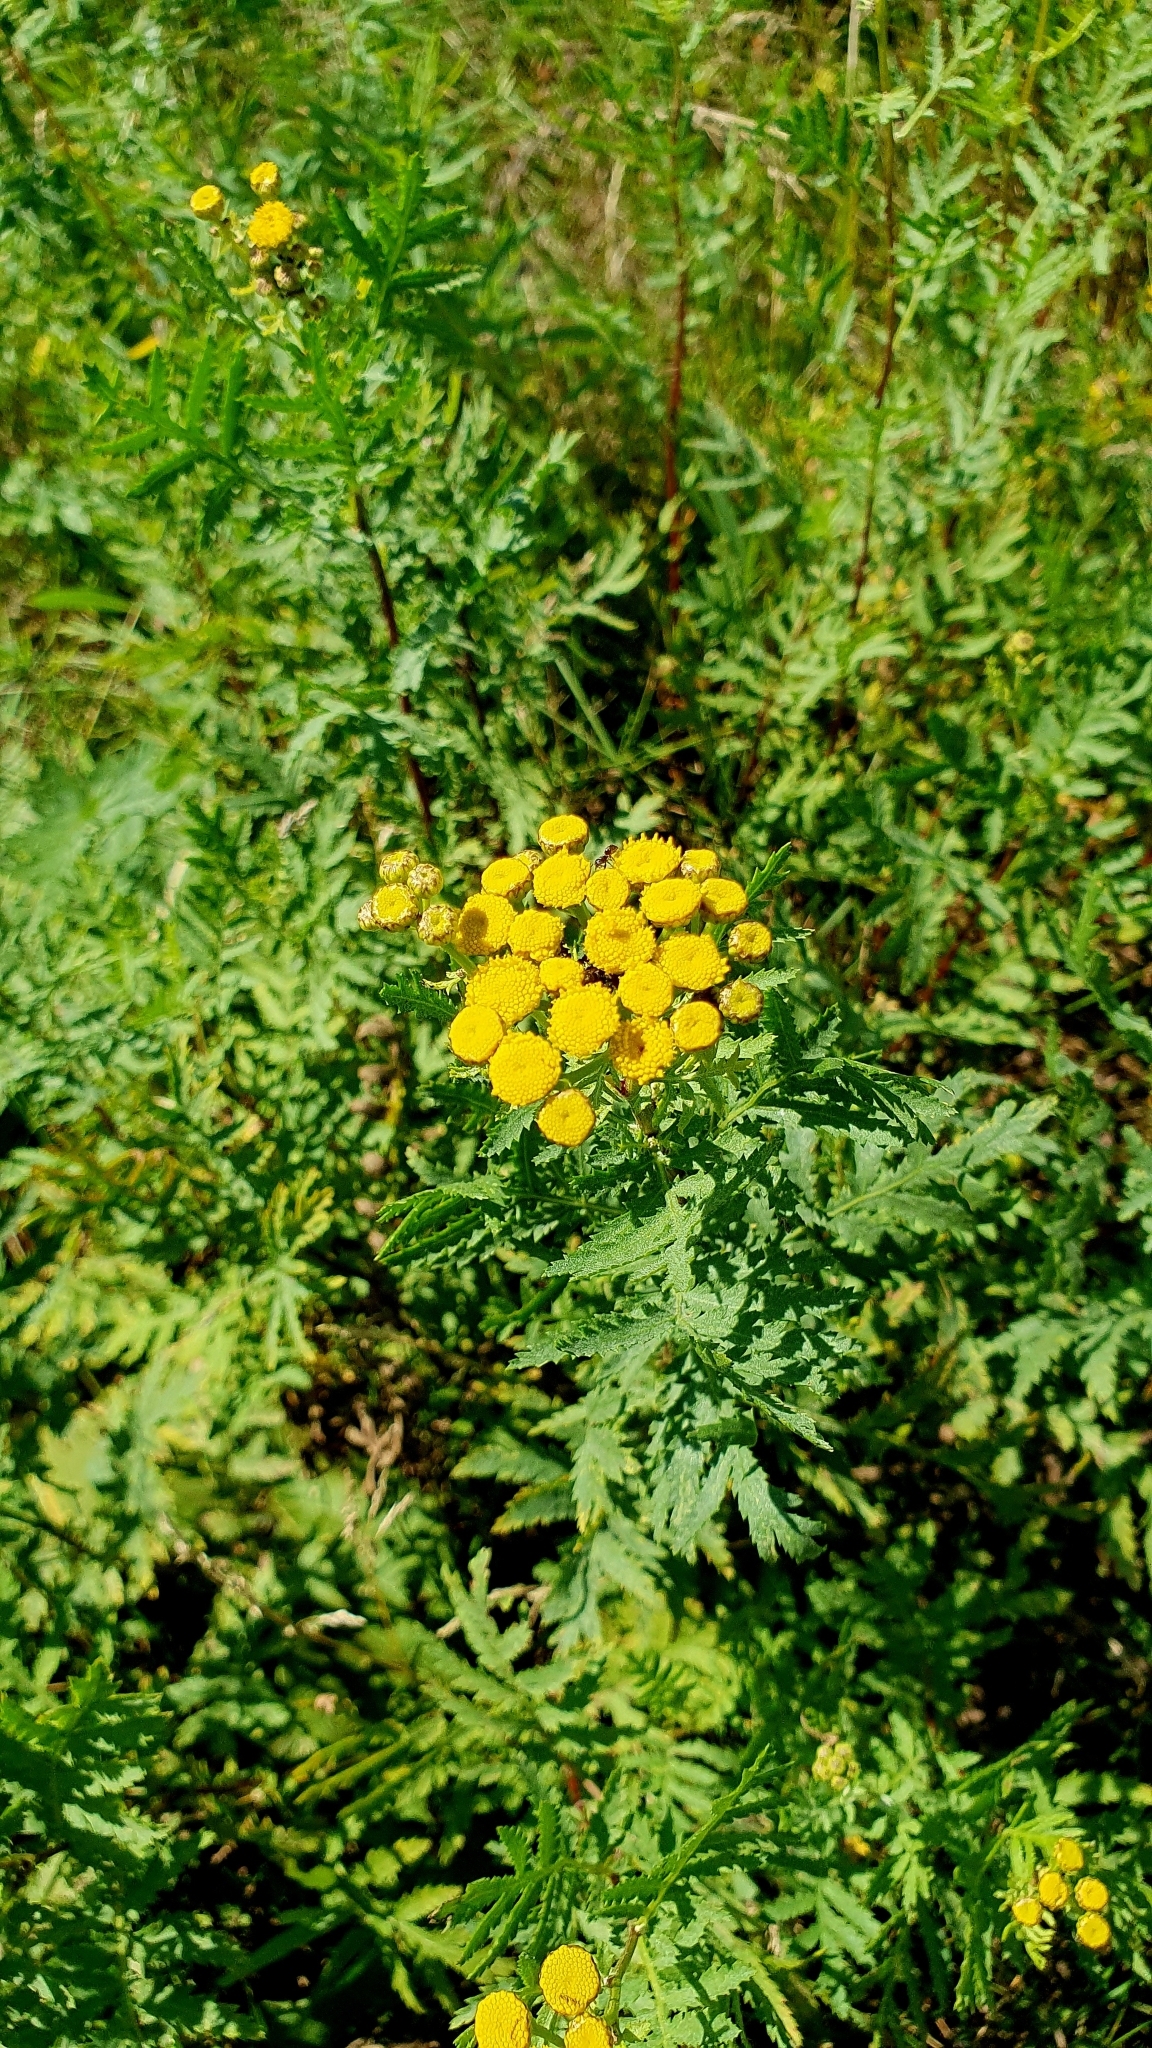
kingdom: Plantae
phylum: Tracheophyta
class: Magnoliopsida
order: Asterales
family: Asteraceae
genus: Tanacetum
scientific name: Tanacetum vulgare
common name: Common tansy
